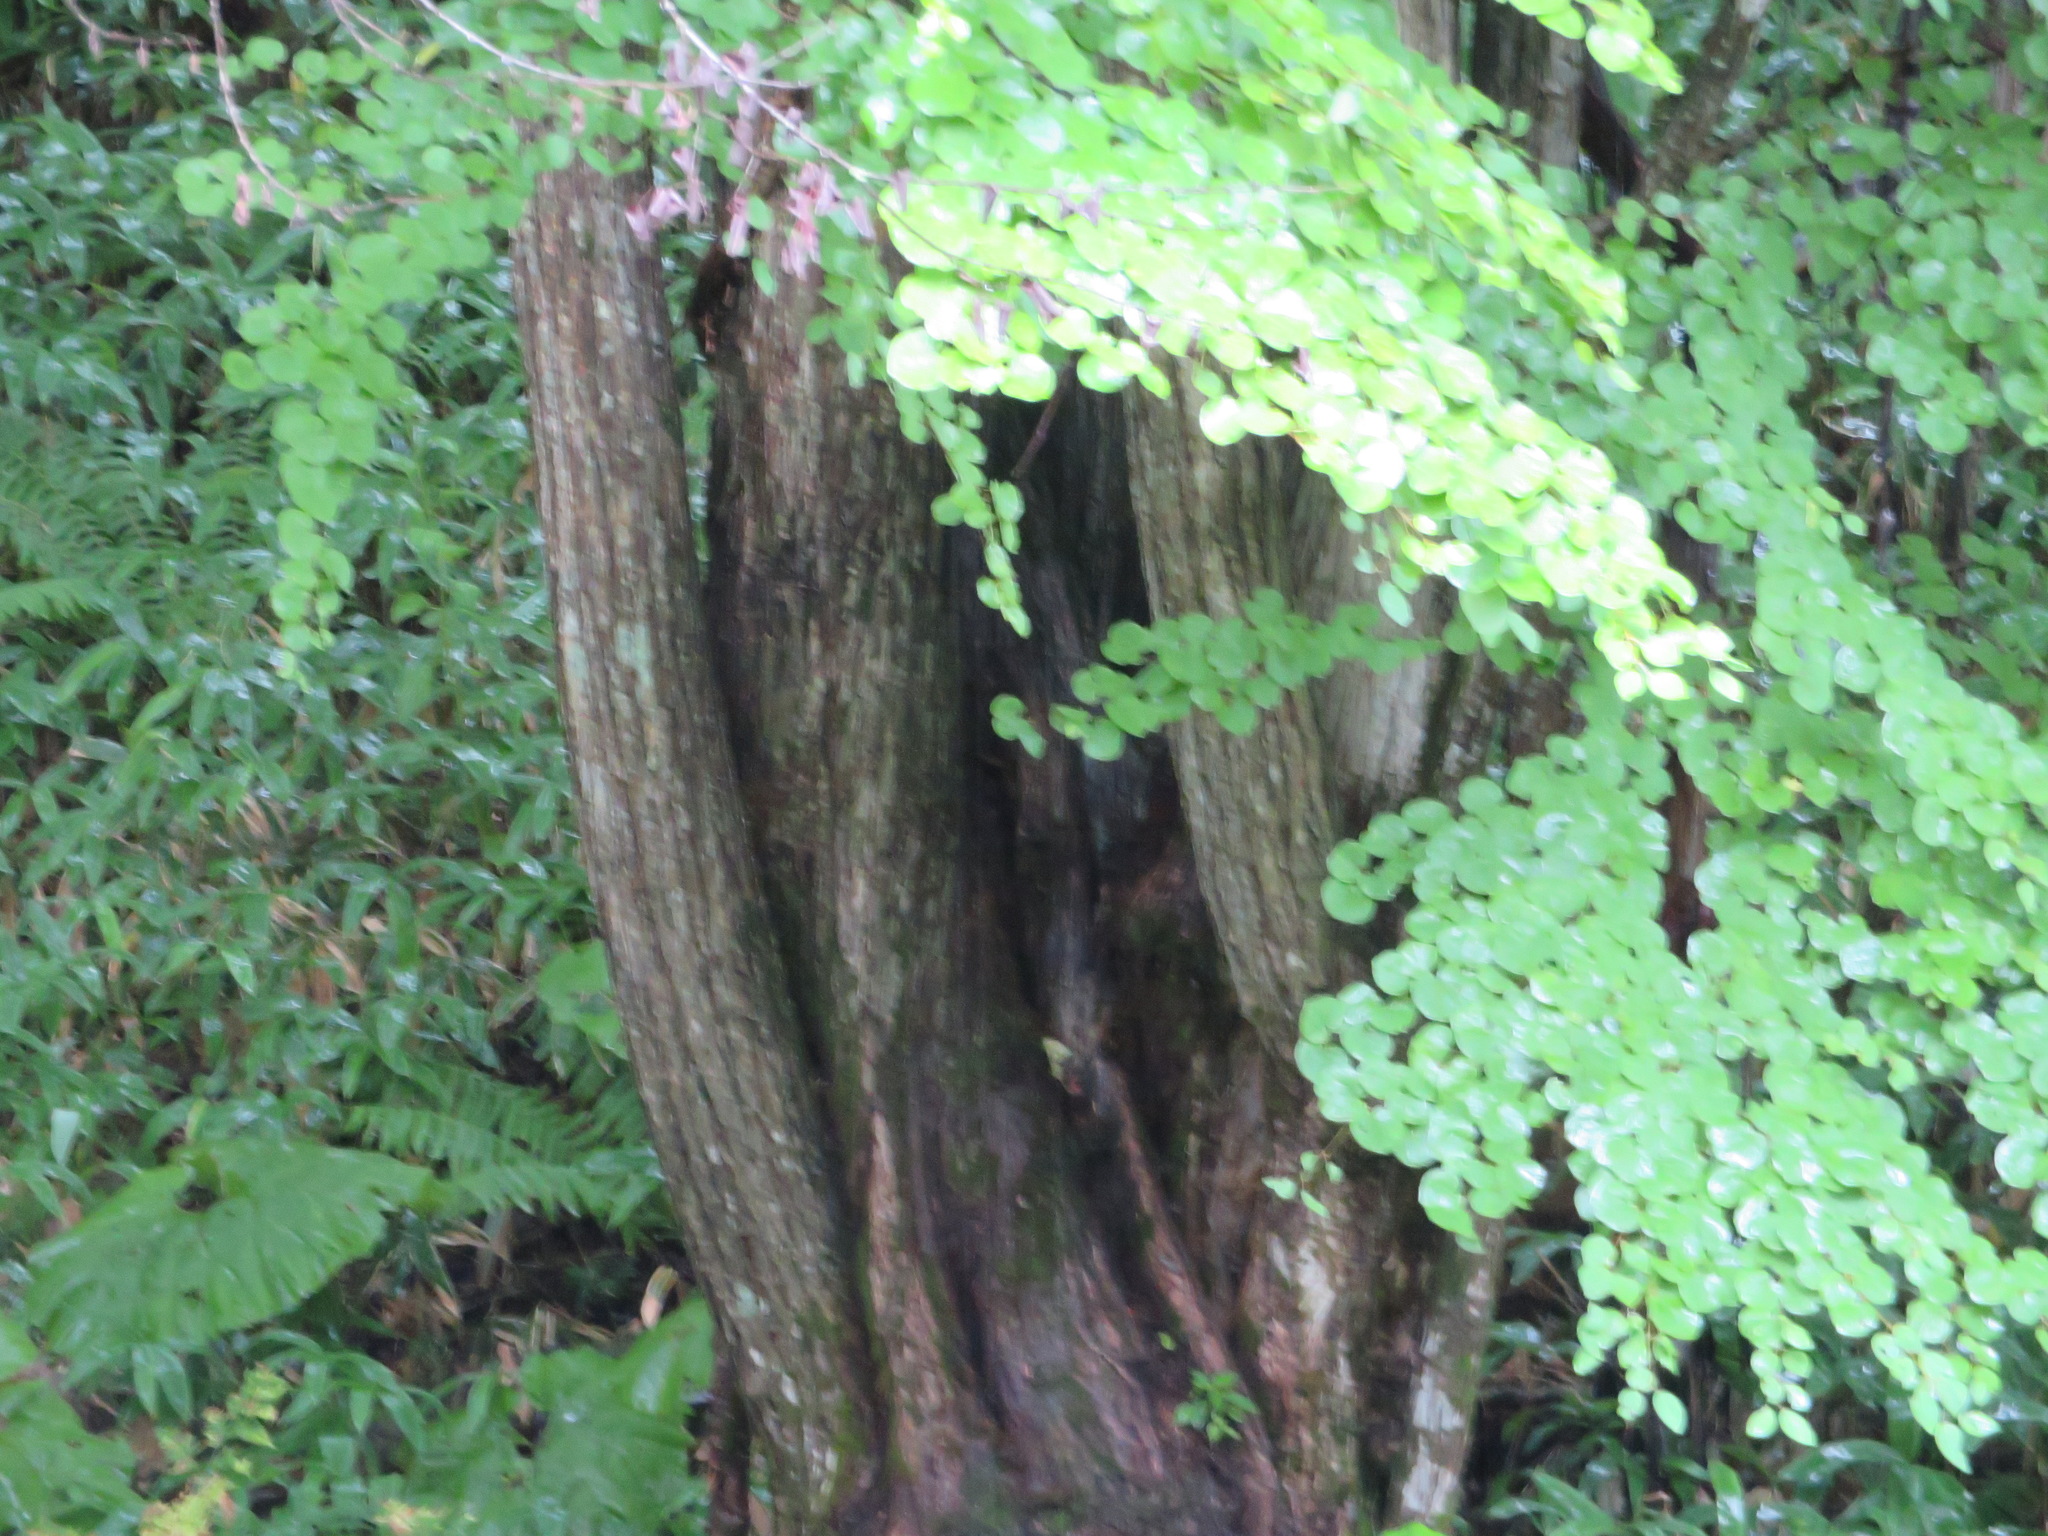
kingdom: Plantae
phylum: Tracheophyta
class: Magnoliopsida
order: Saxifragales
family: Cercidiphyllaceae
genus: Cercidiphyllum
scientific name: Cercidiphyllum japonicum
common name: Katsura tree
